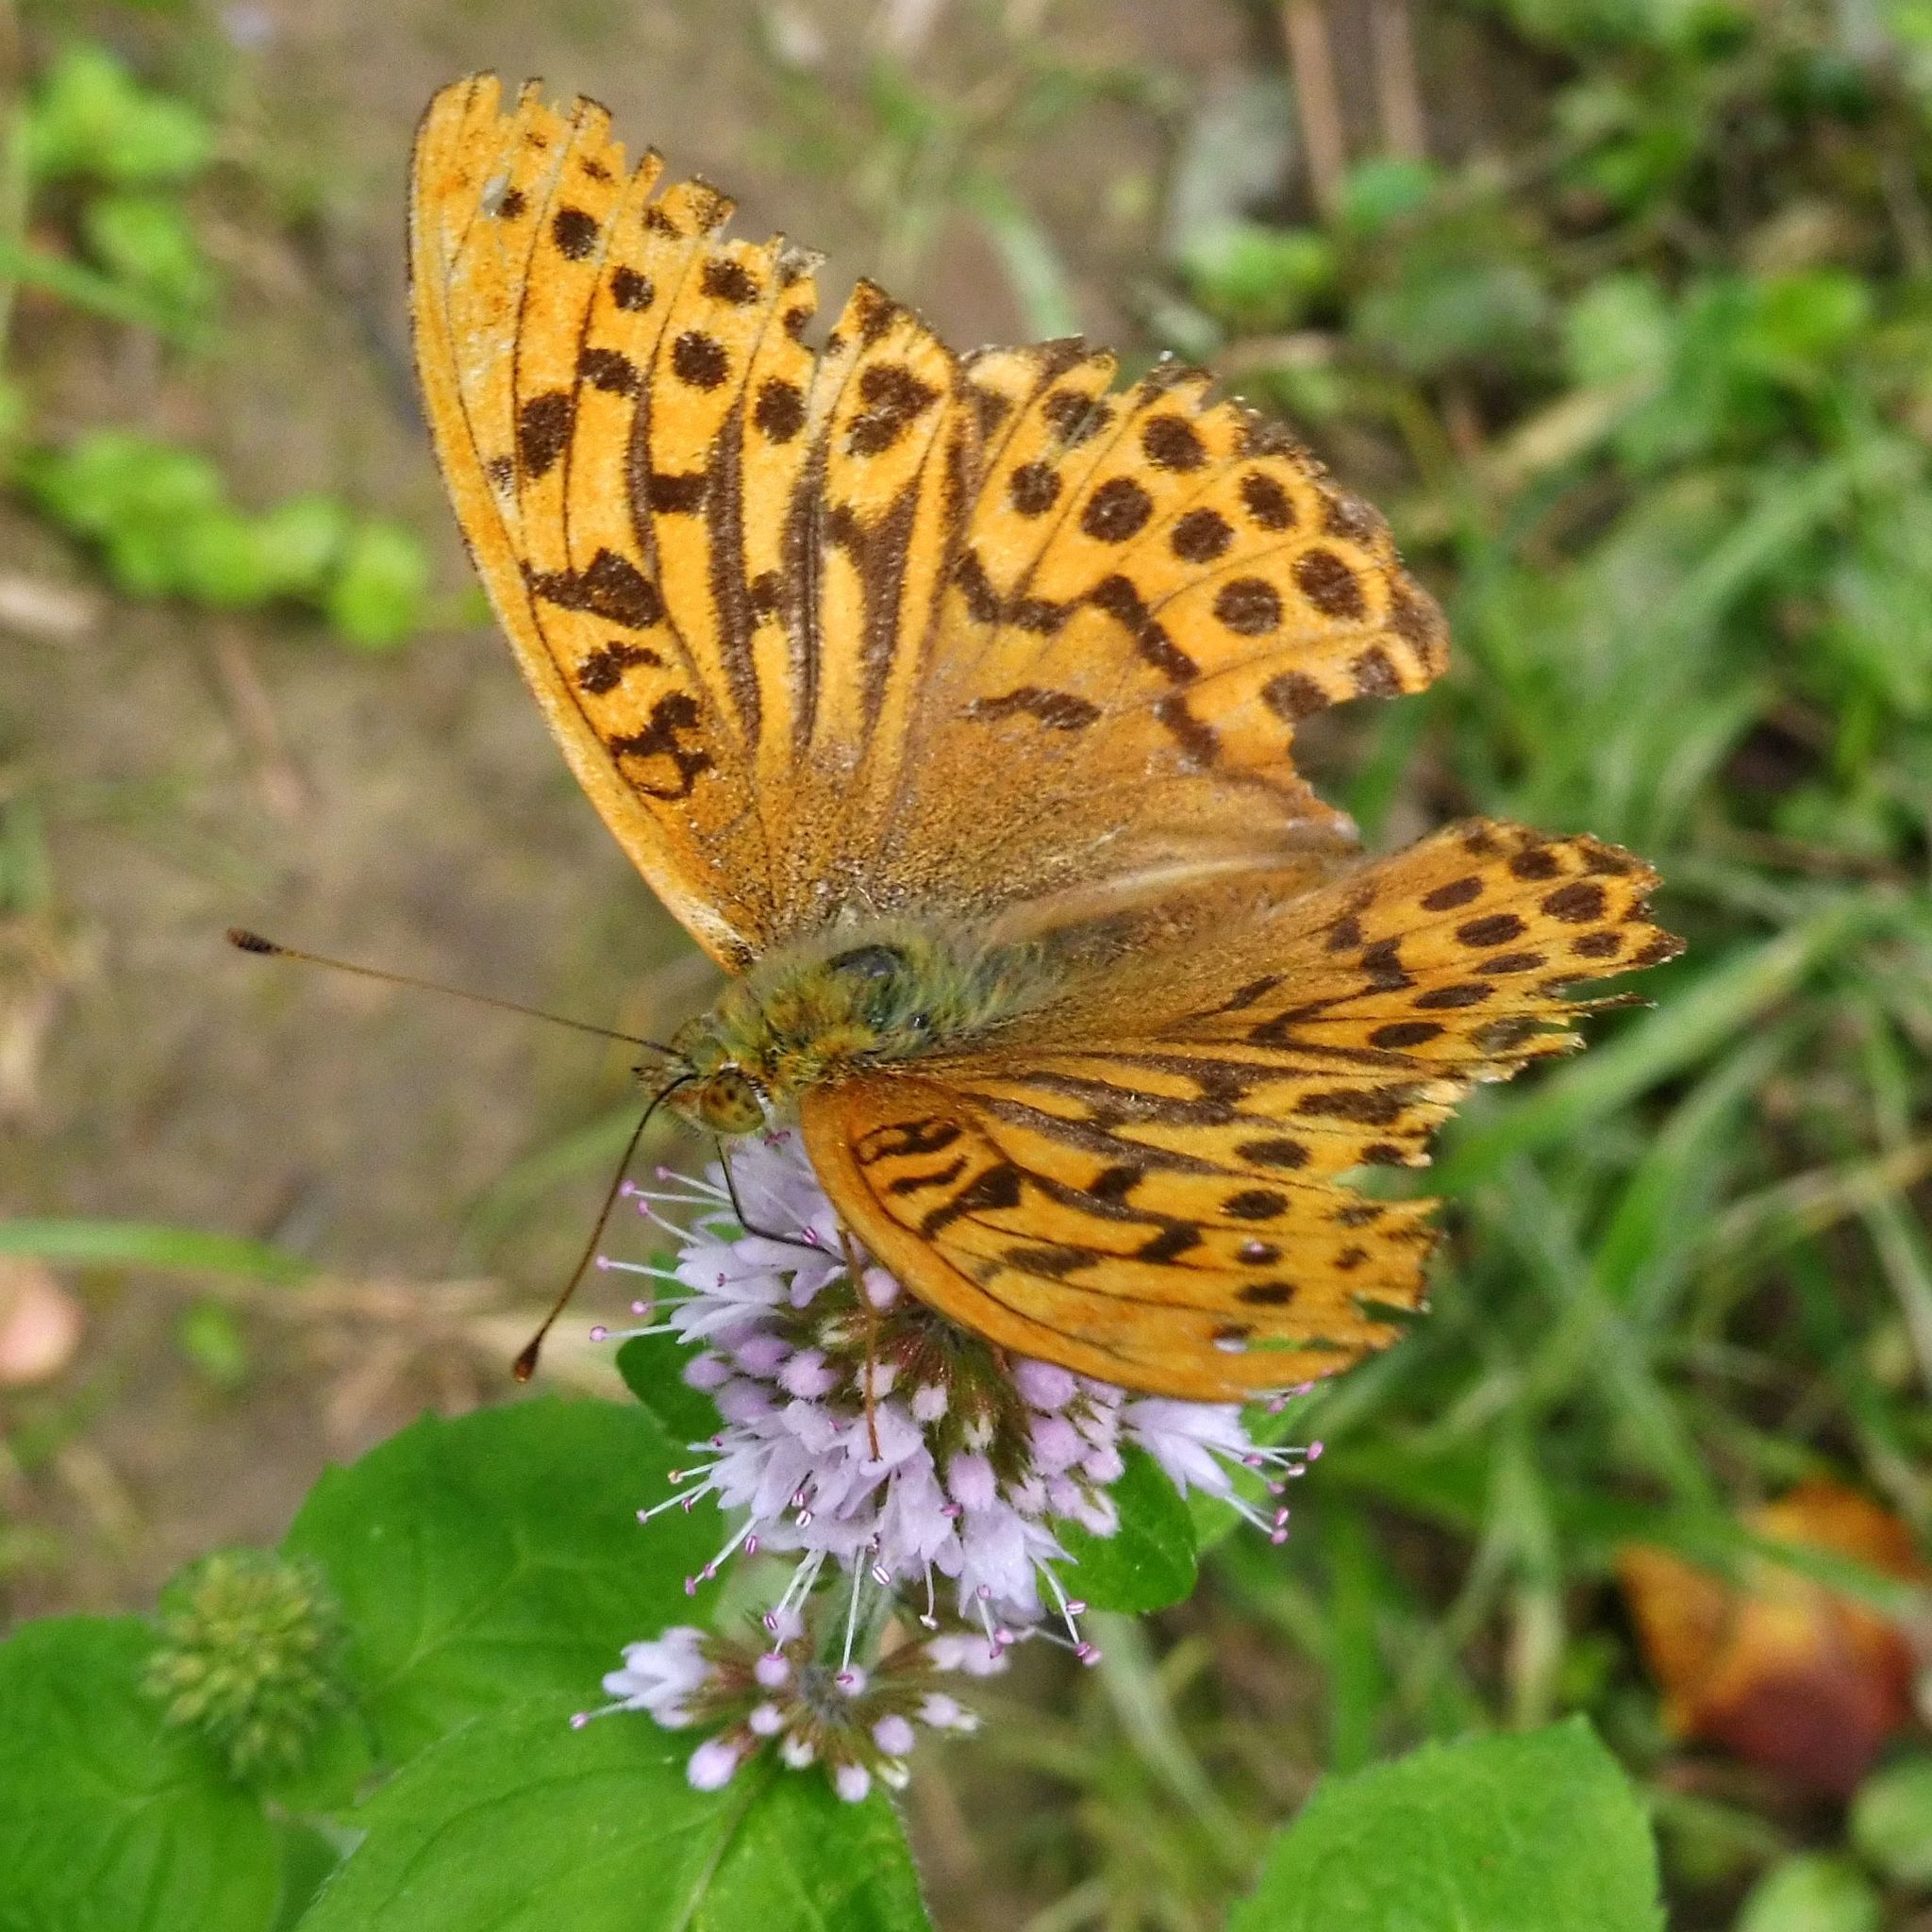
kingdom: Animalia
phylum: Arthropoda
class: Insecta
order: Lepidoptera
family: Nymphalidae
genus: Argynnis
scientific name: Argynnis paphia
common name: Silver-washed fritillary
